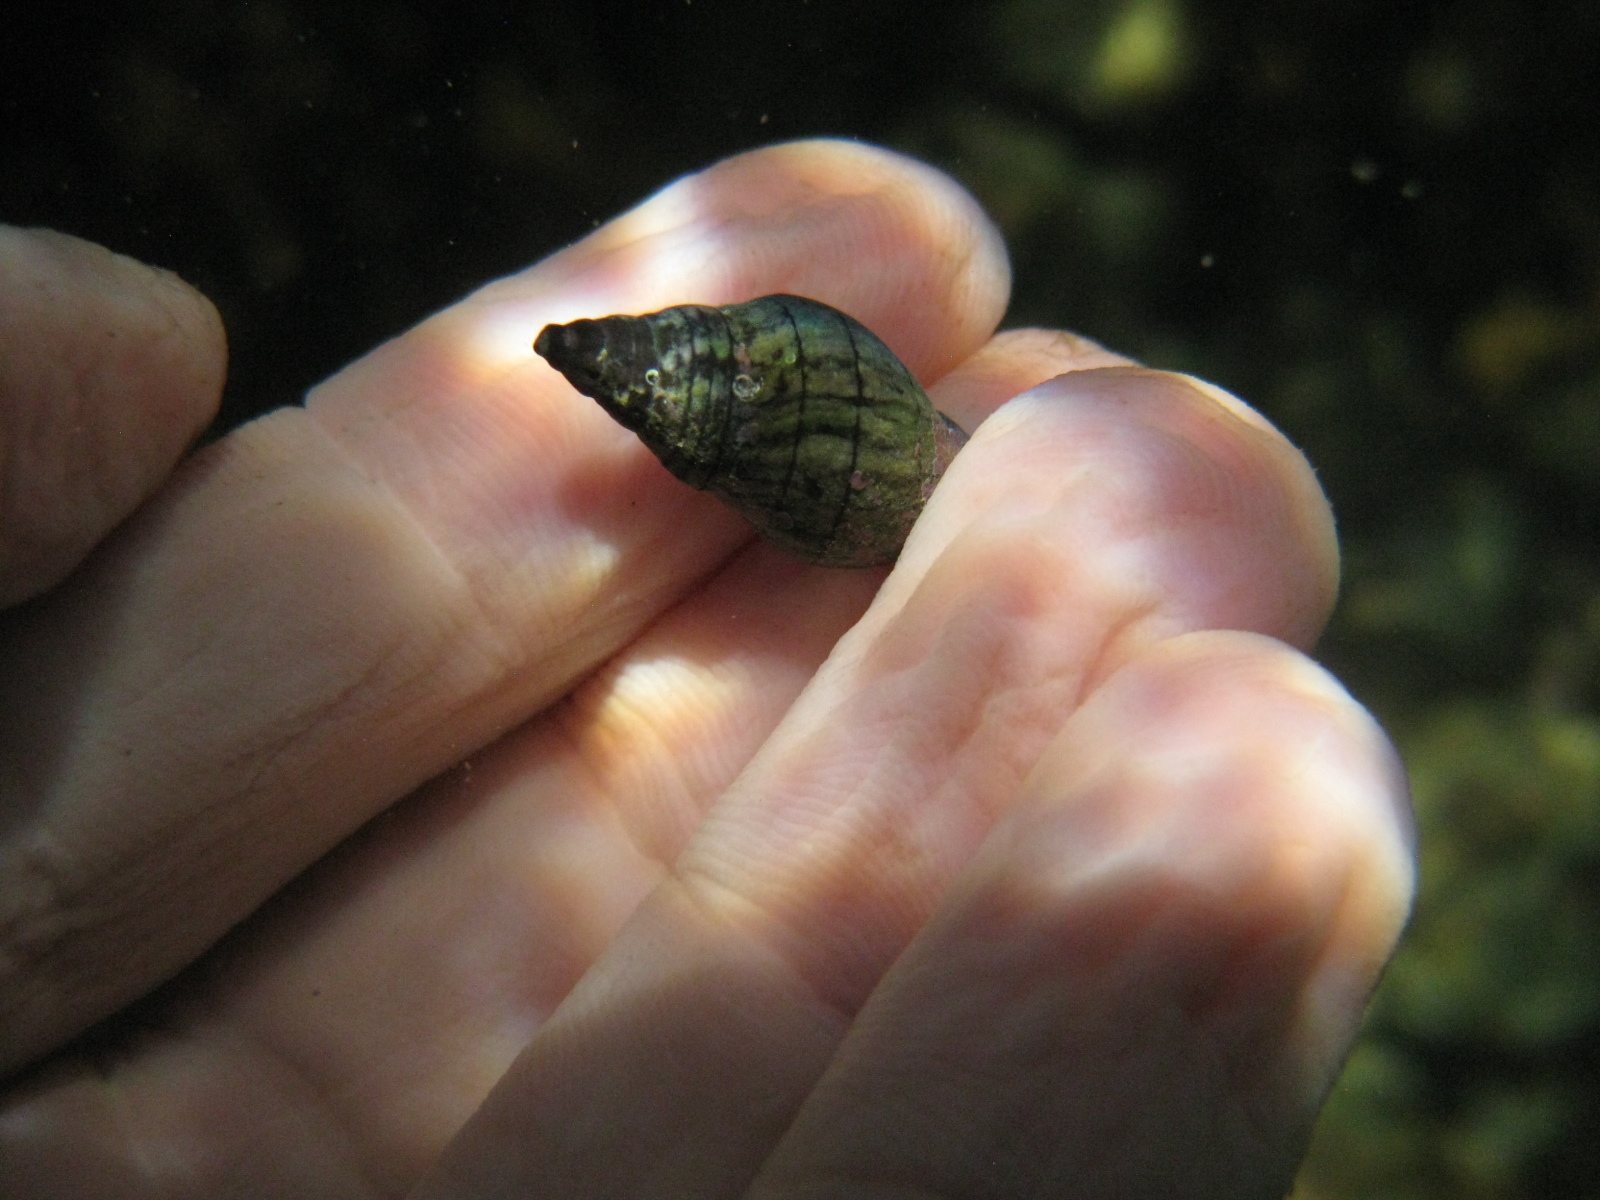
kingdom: Animalia
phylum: Mollusca
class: Gastropoda
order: Neogastropoda
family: Cominellidae
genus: Cominella
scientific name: Cominella virgata
